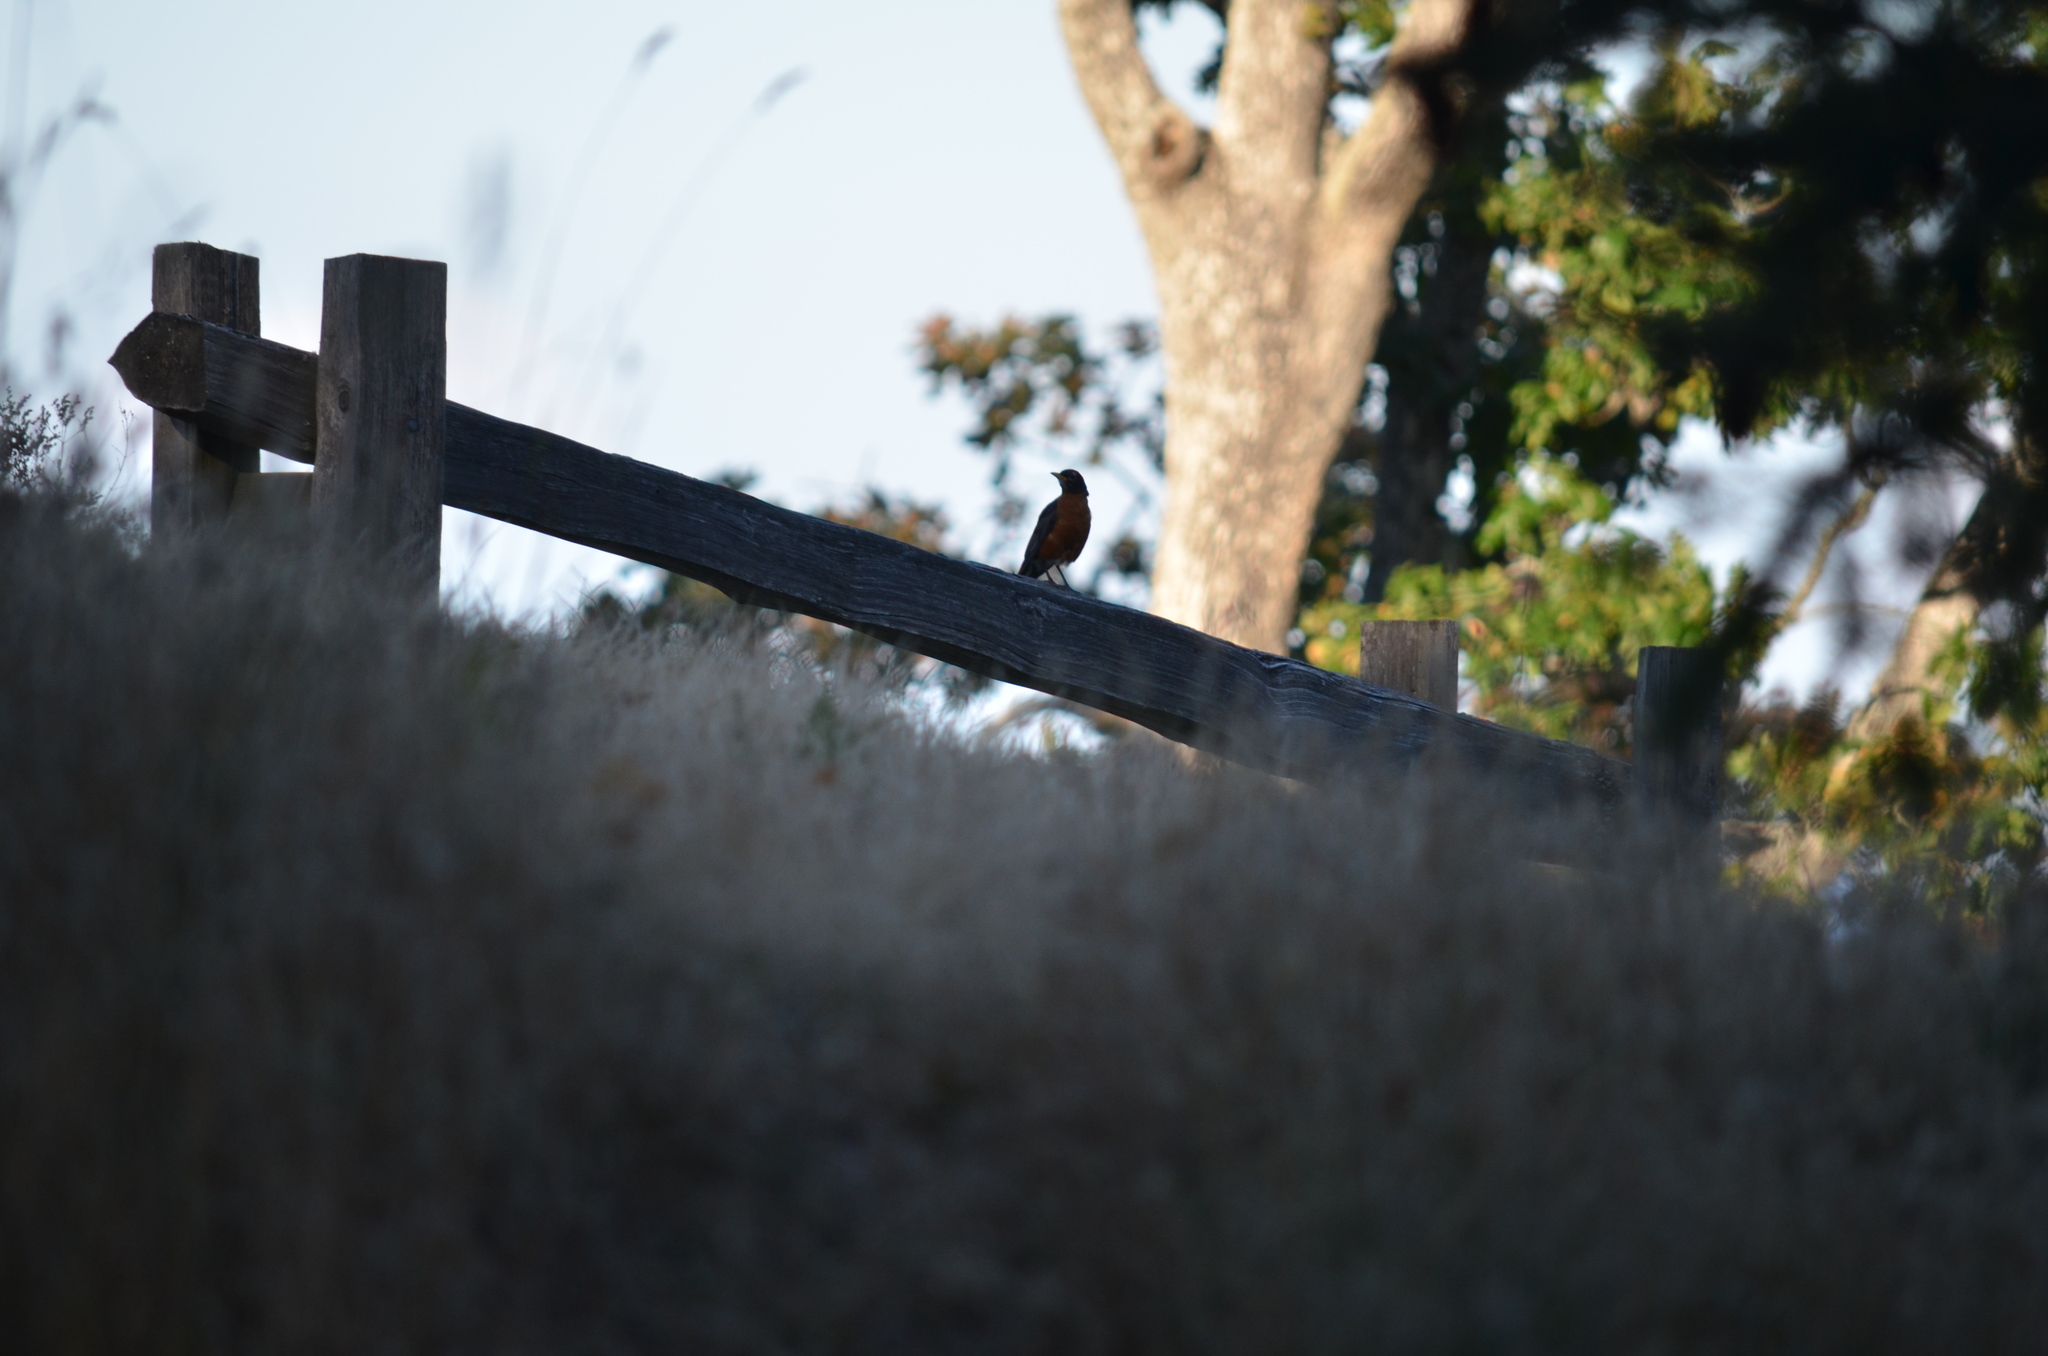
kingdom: Animalia
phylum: Chordata
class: Aves
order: Passeriformes
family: Turdidae
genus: Turdus
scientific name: Turdus migratorius
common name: American robin
